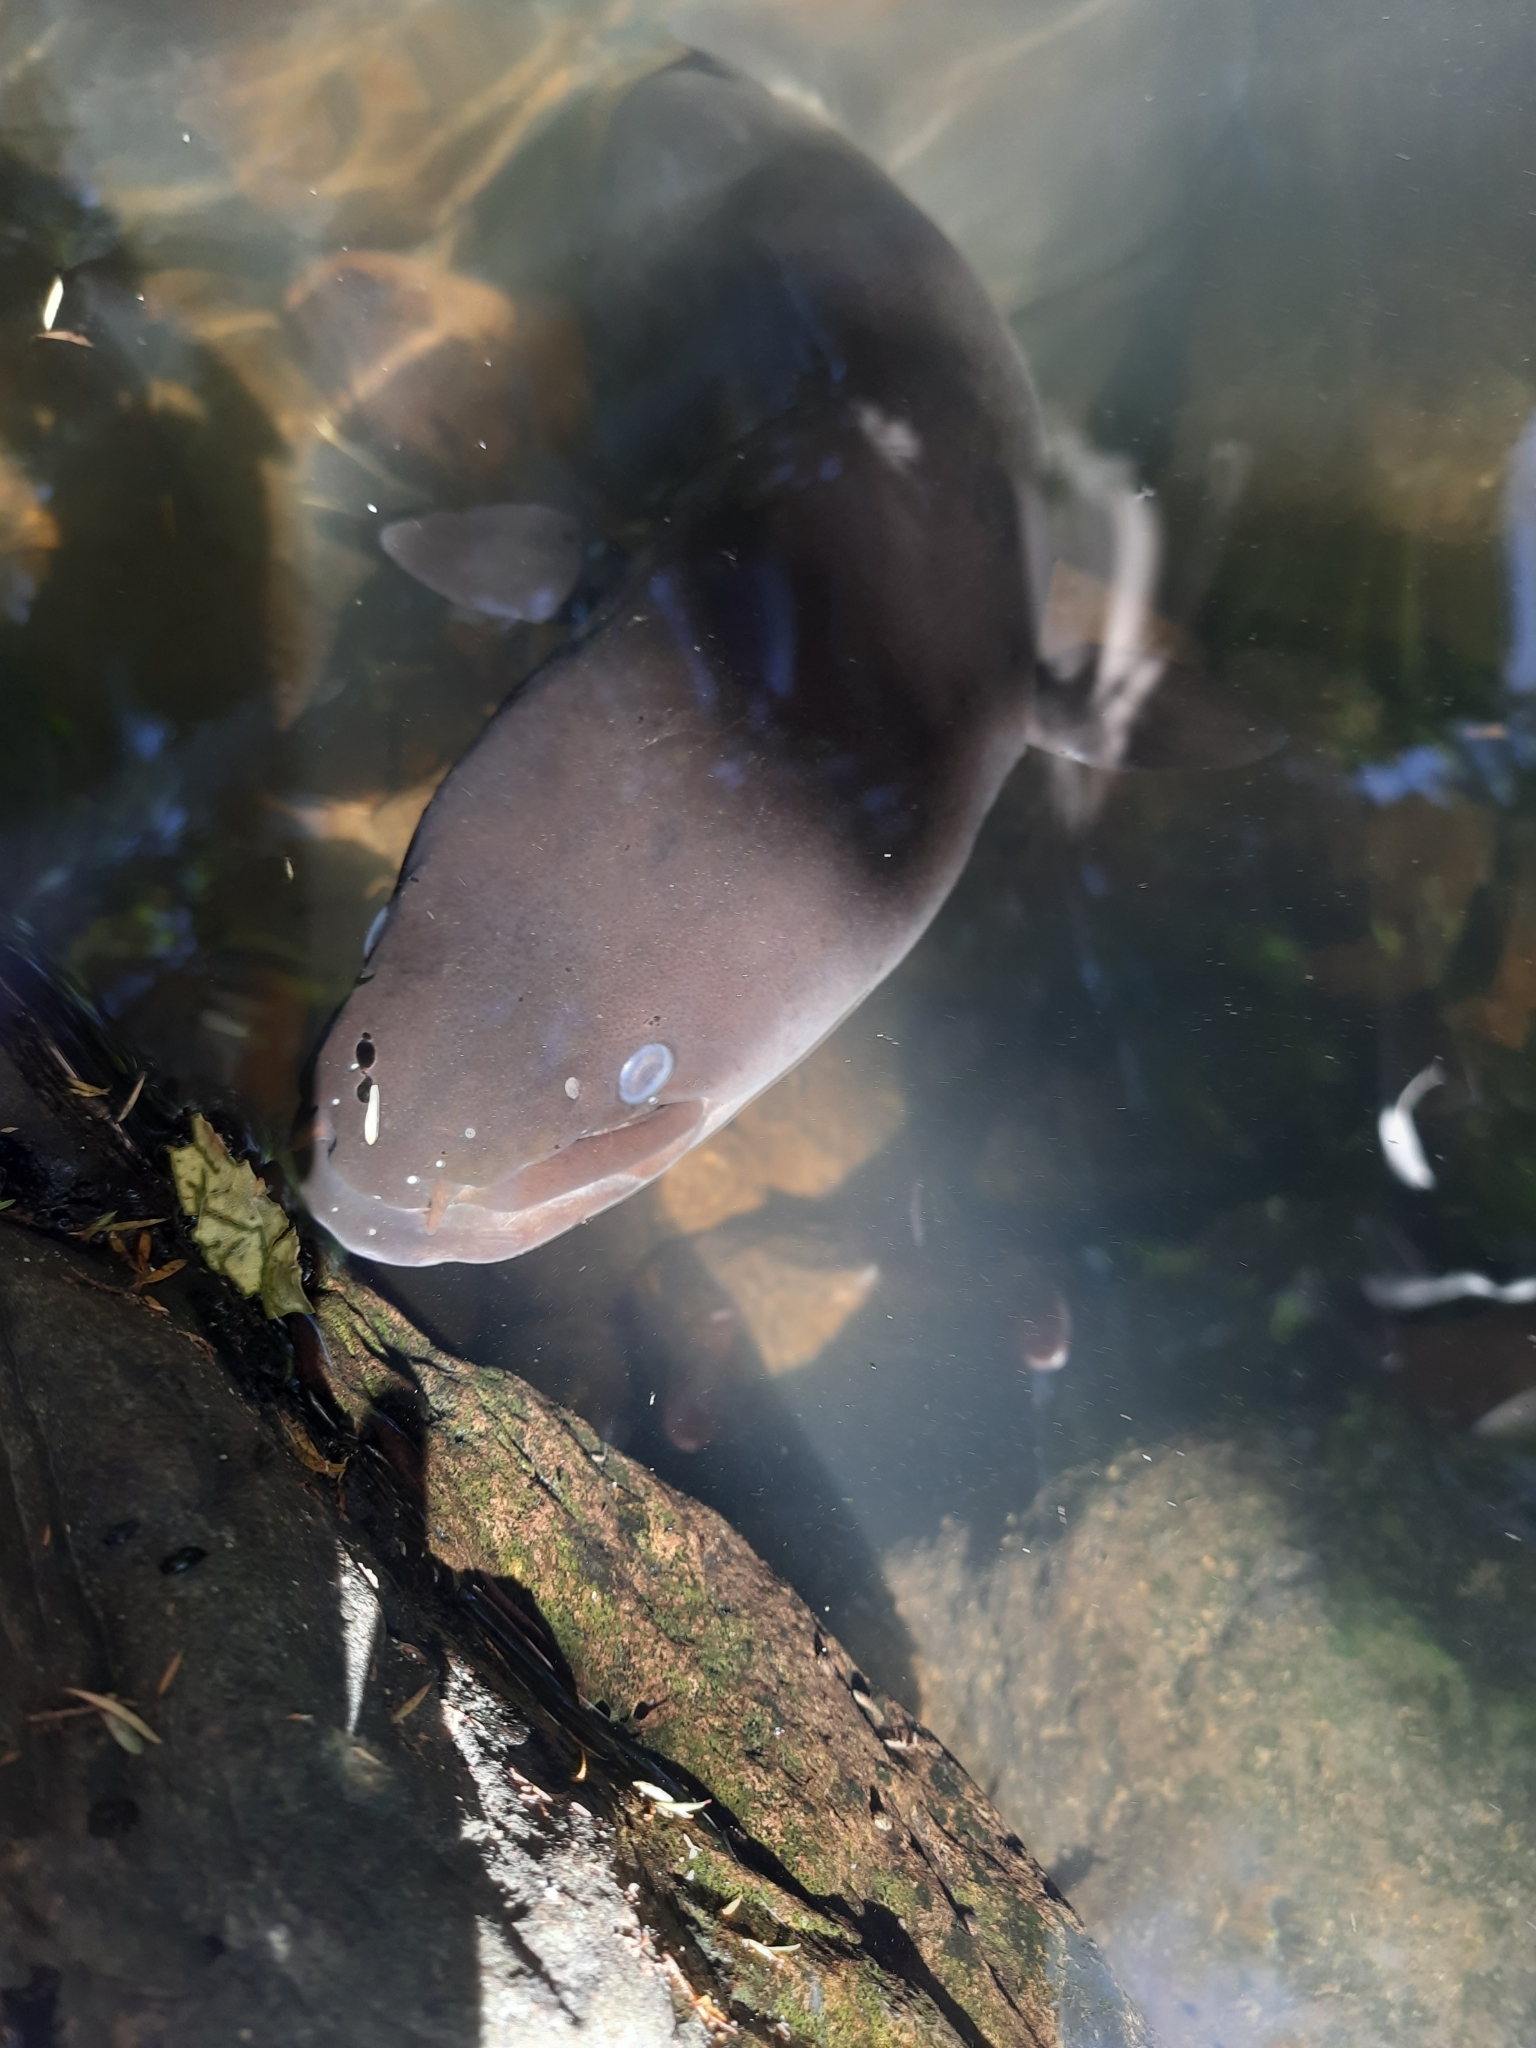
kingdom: Animalia
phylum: Chordata
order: Anguilliformes
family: Anguillidae
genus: Anguilla
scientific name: Anguilla dieffenbachii
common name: New zealand longfin eel
